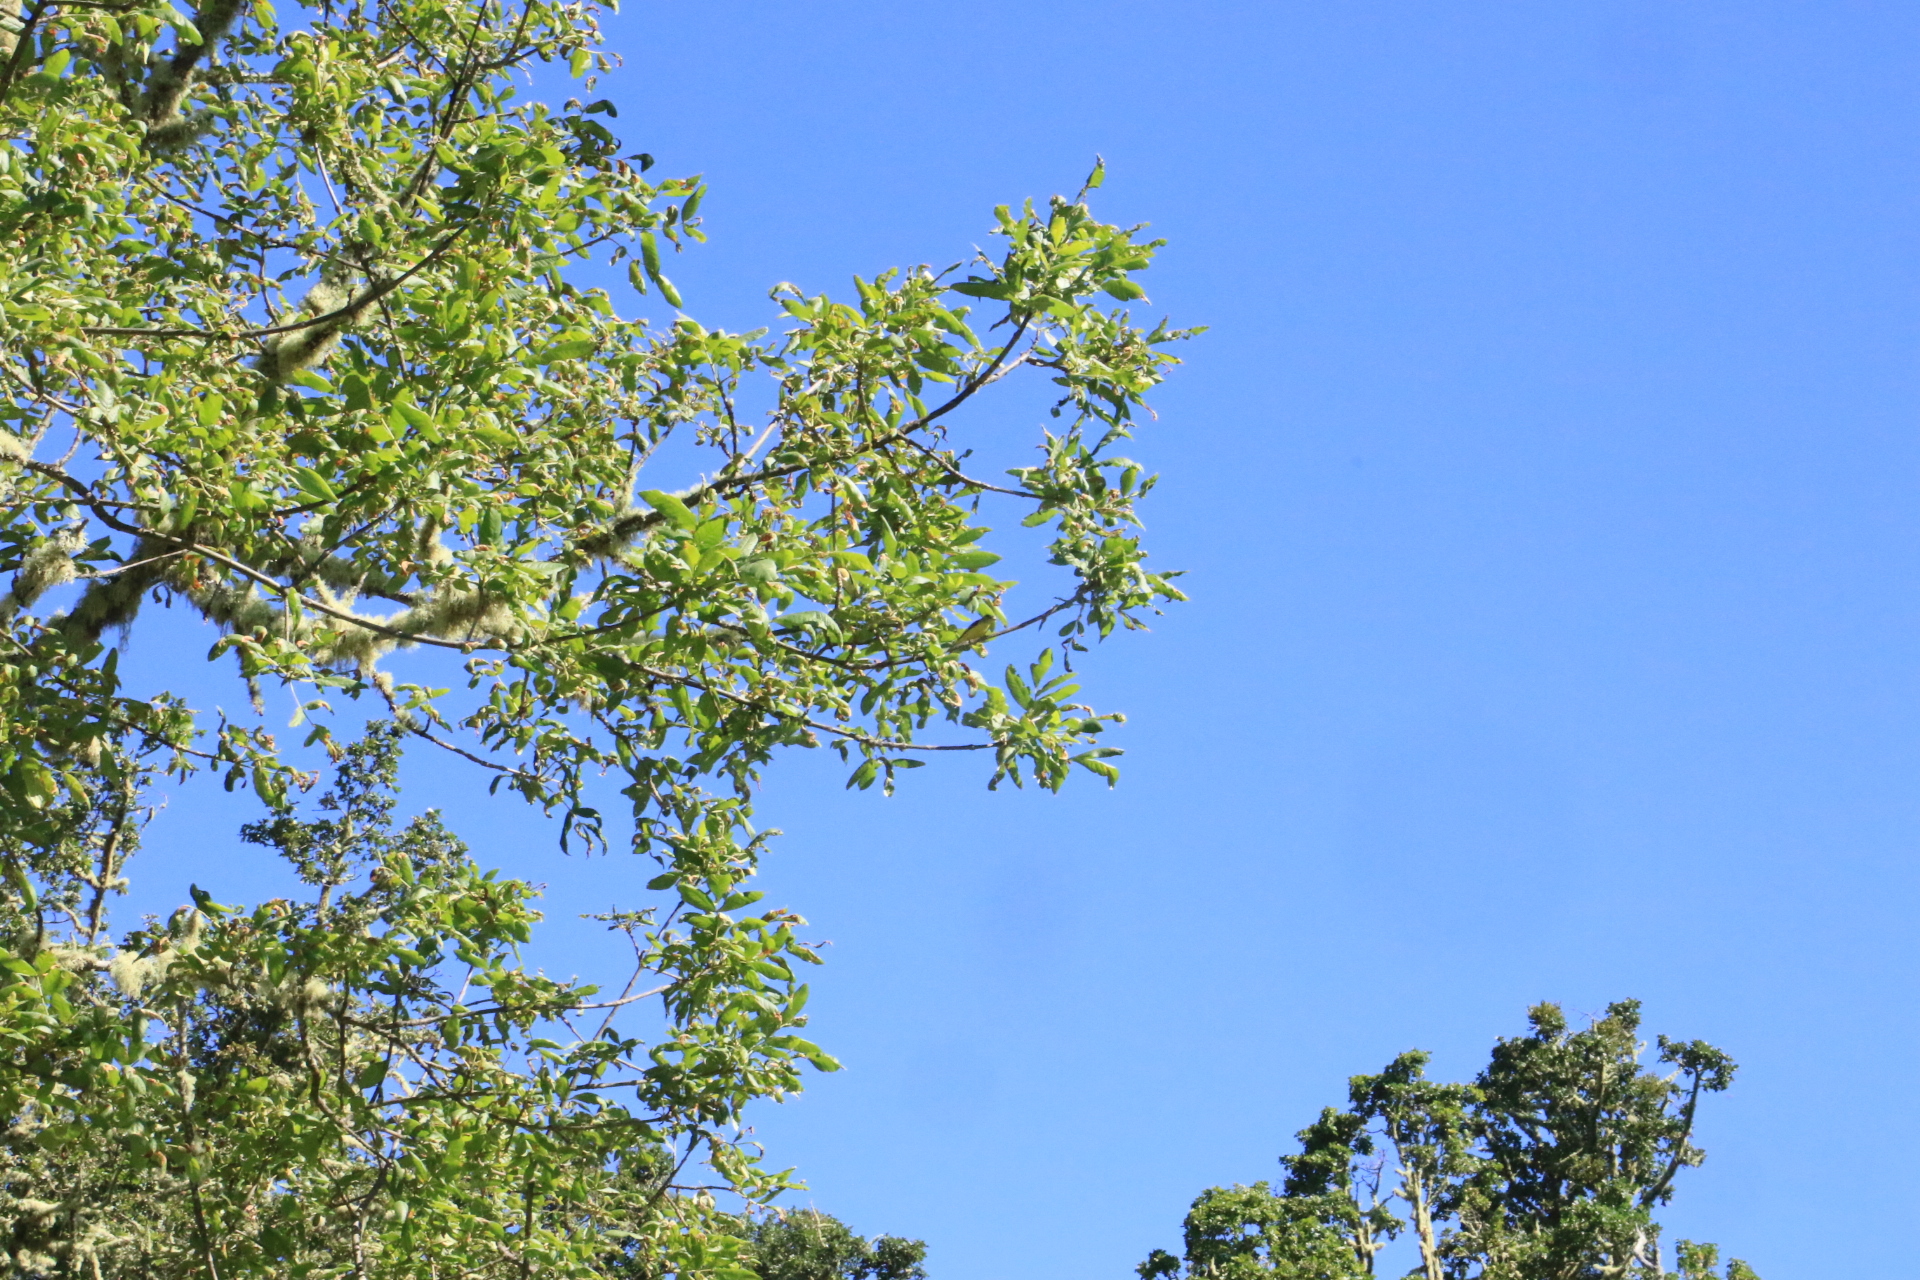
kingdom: Animalia
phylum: Chordata
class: Aves
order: Passeriformes
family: Fringillidae
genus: Spinus
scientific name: Spinus psaltria
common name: Lesser goldfinch
